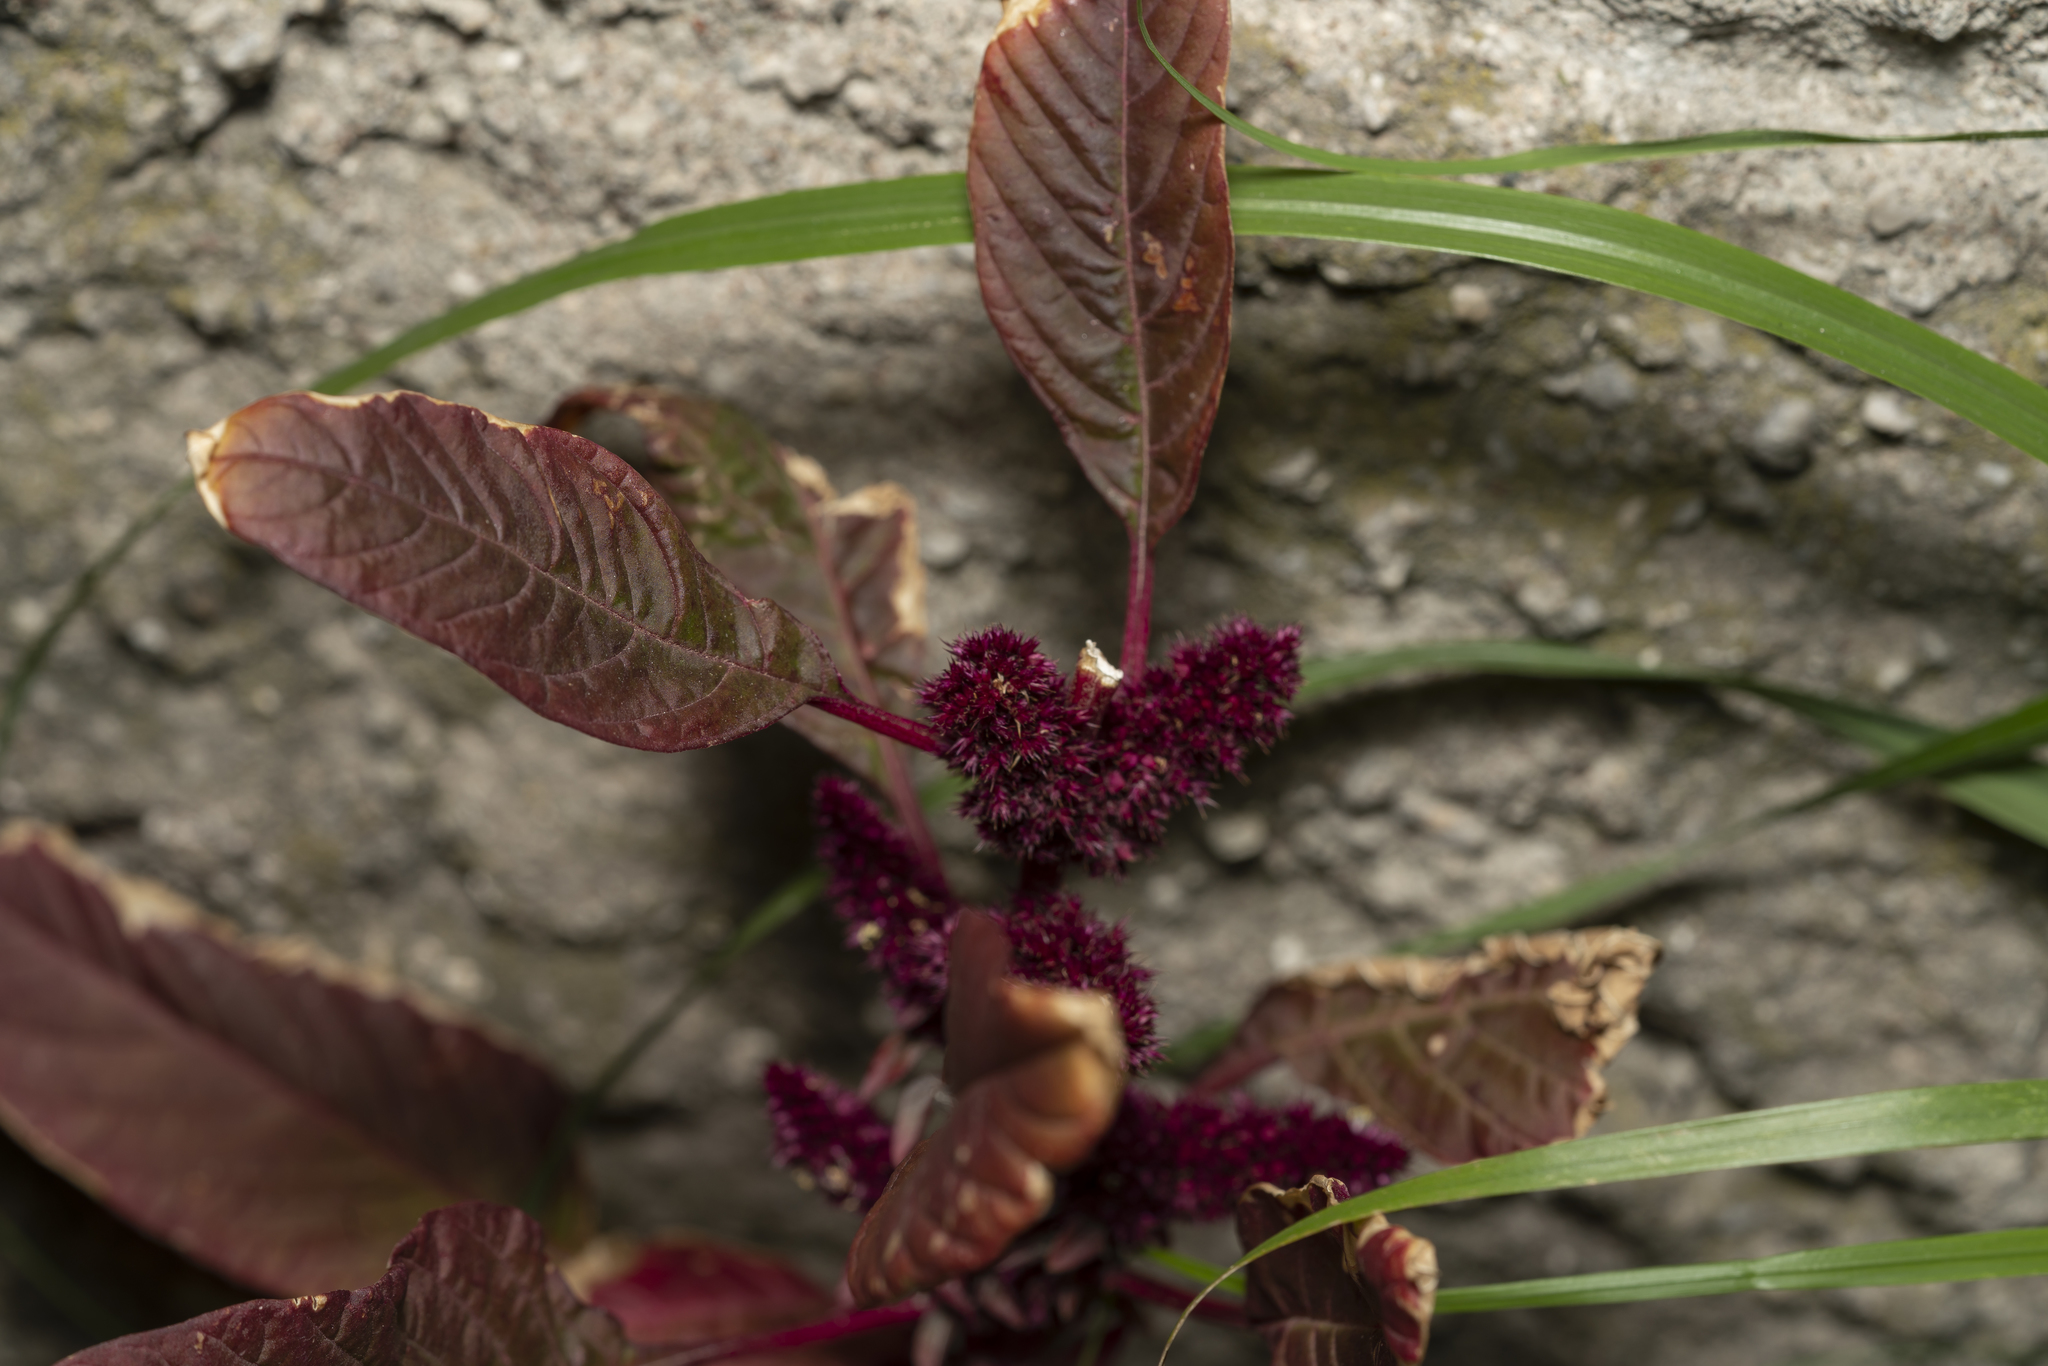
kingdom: Plantae
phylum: Tracheophyta
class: Magnoliopsida
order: Caryophyllales
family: Amaranthaceae
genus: Amaranthus
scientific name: Amaranthus cruentus
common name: Purple amaranth
